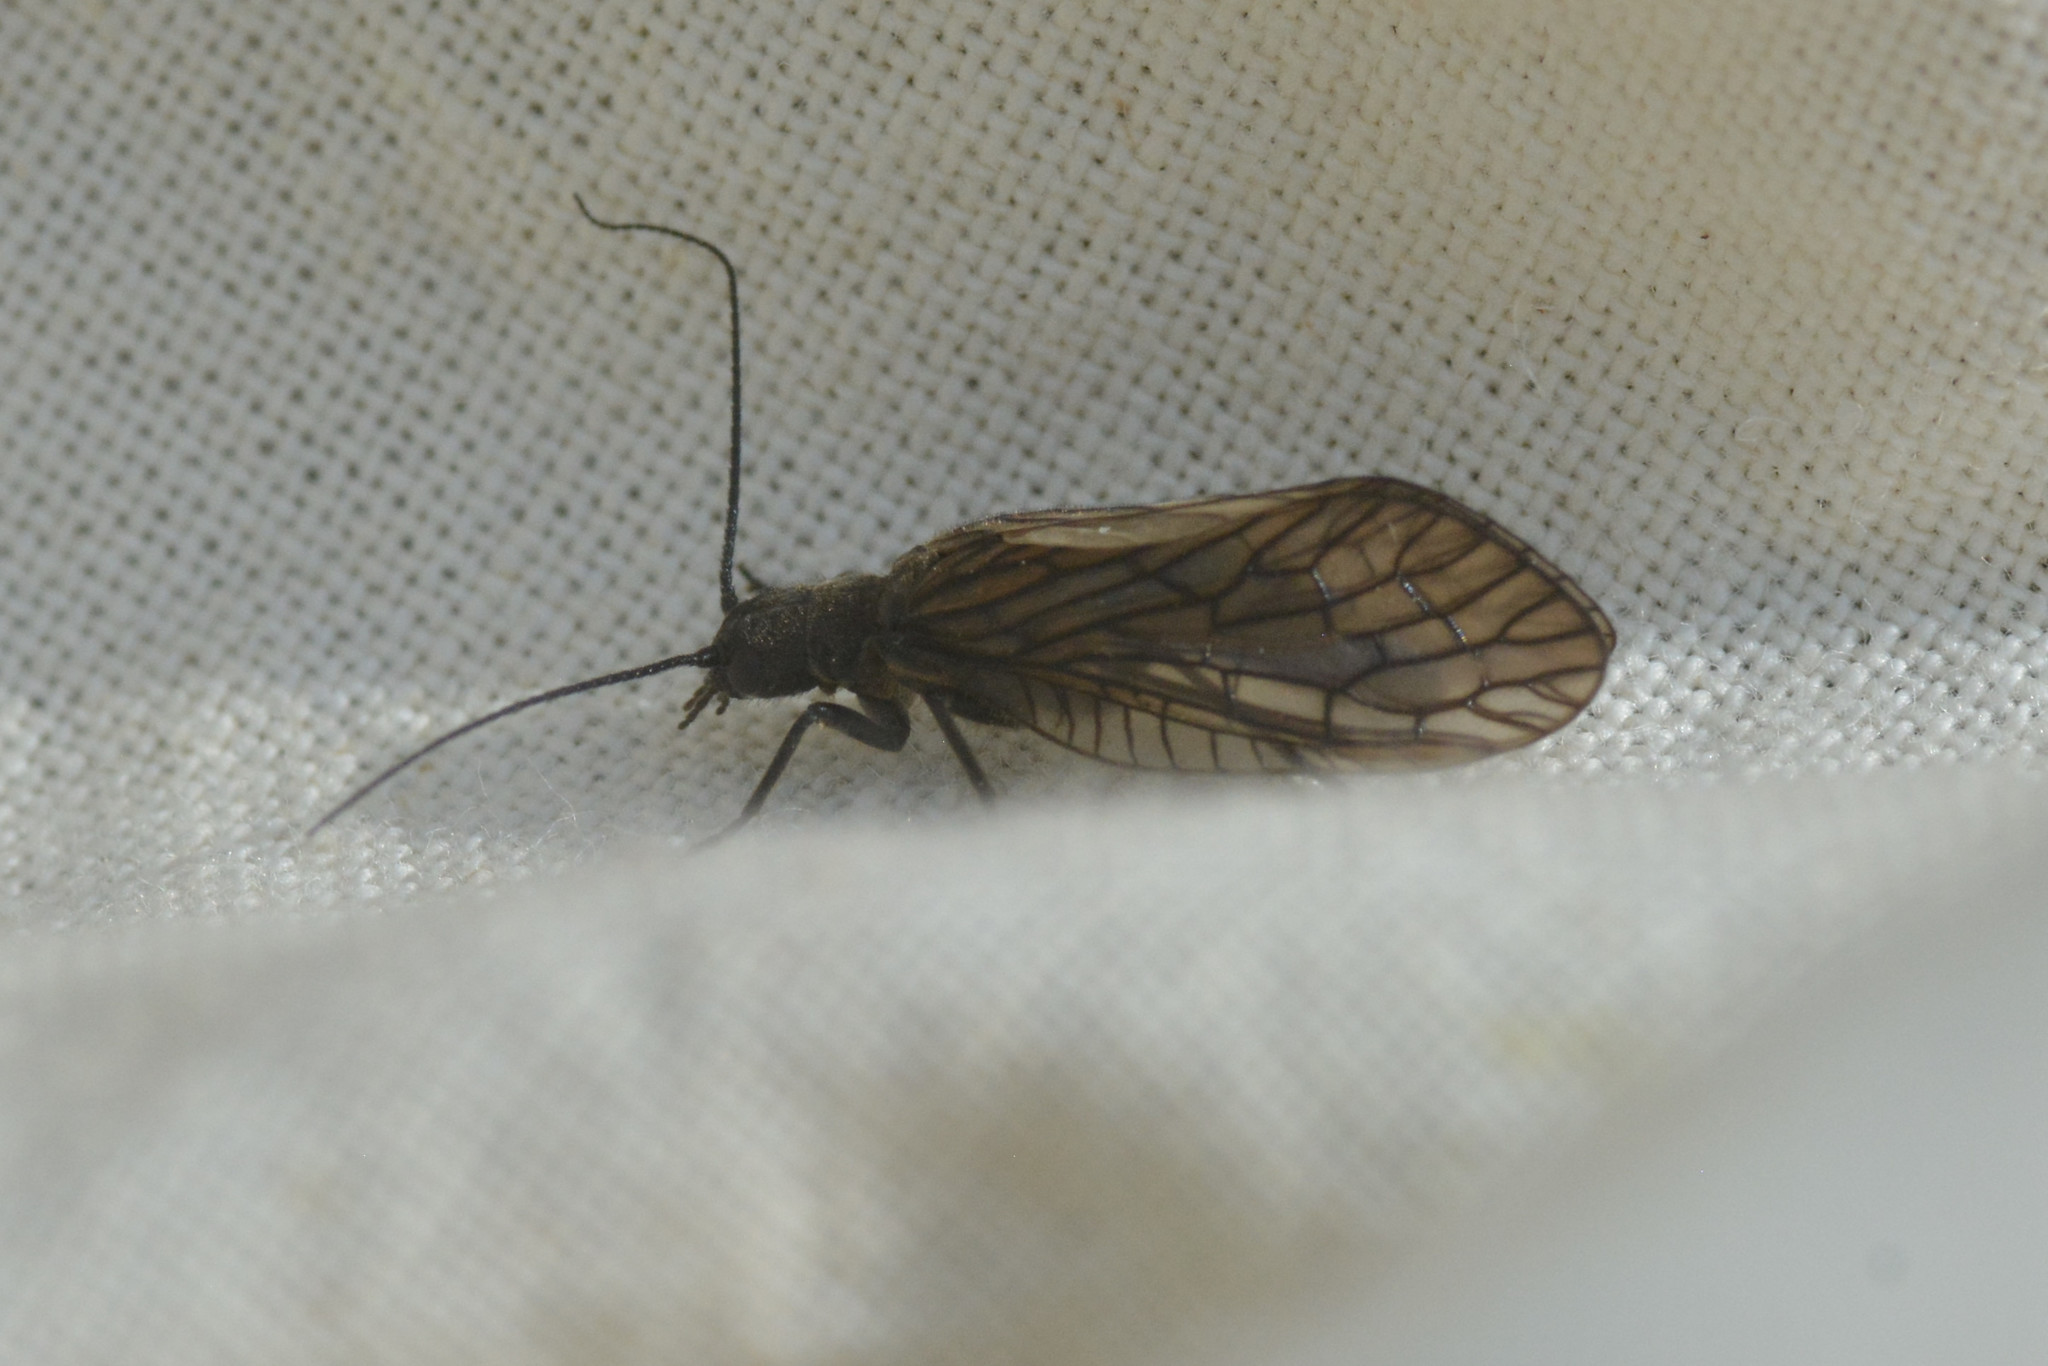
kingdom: Animalia
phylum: Arthropoda
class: Insecta
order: Megaloptera
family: Sialidae
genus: Sialis
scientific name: Sialis
